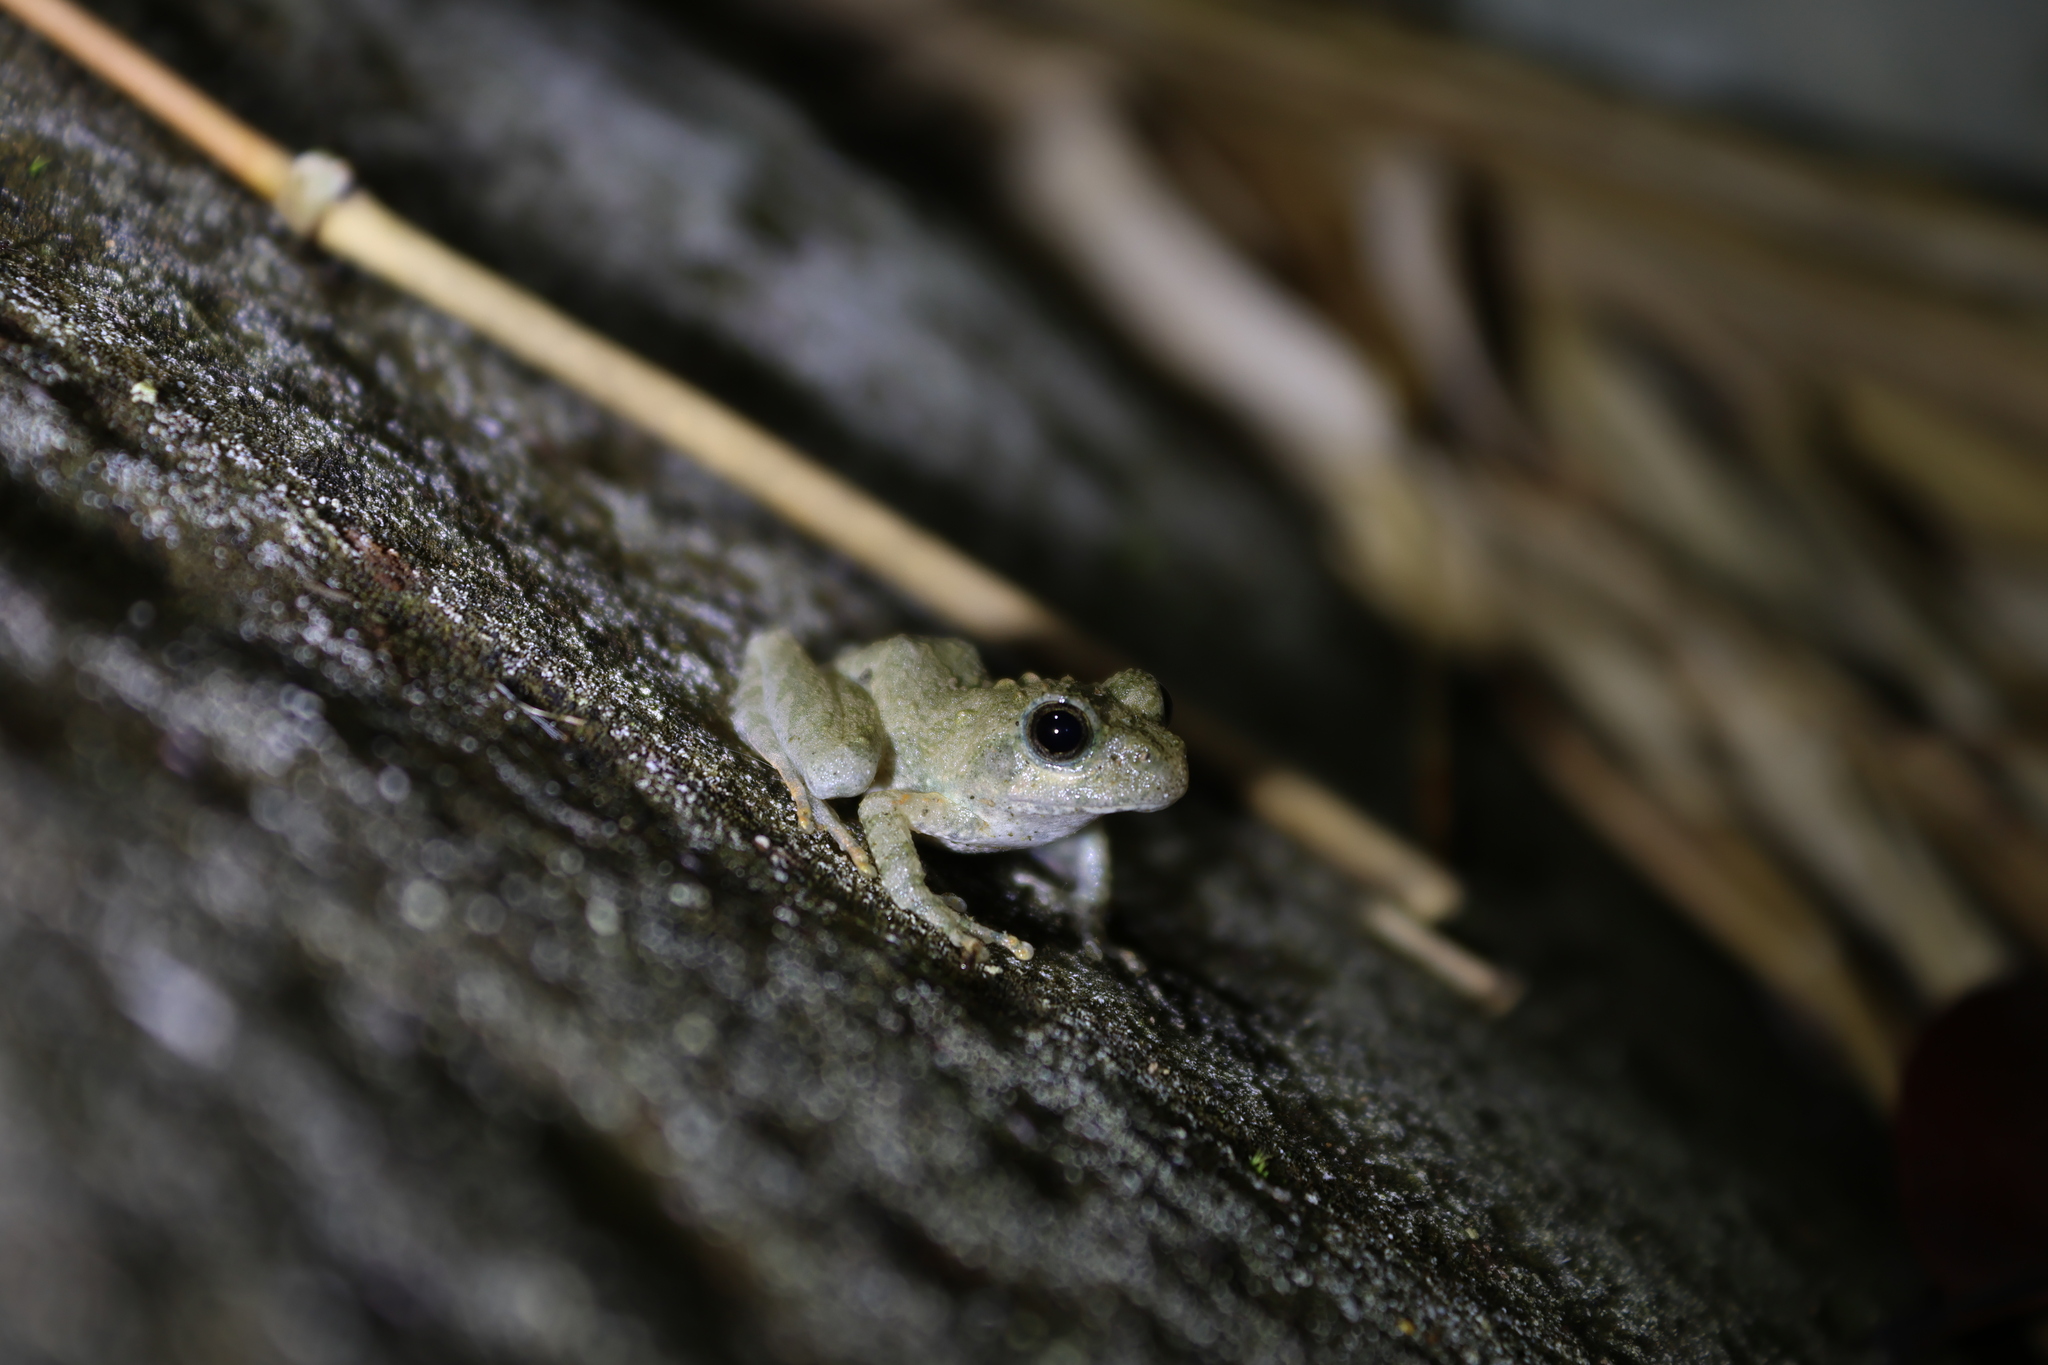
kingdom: Animalia
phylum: Chordata
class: Amphibia
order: Anura
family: Rhacophoridae
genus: Buergeria
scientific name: Buergeria otai
